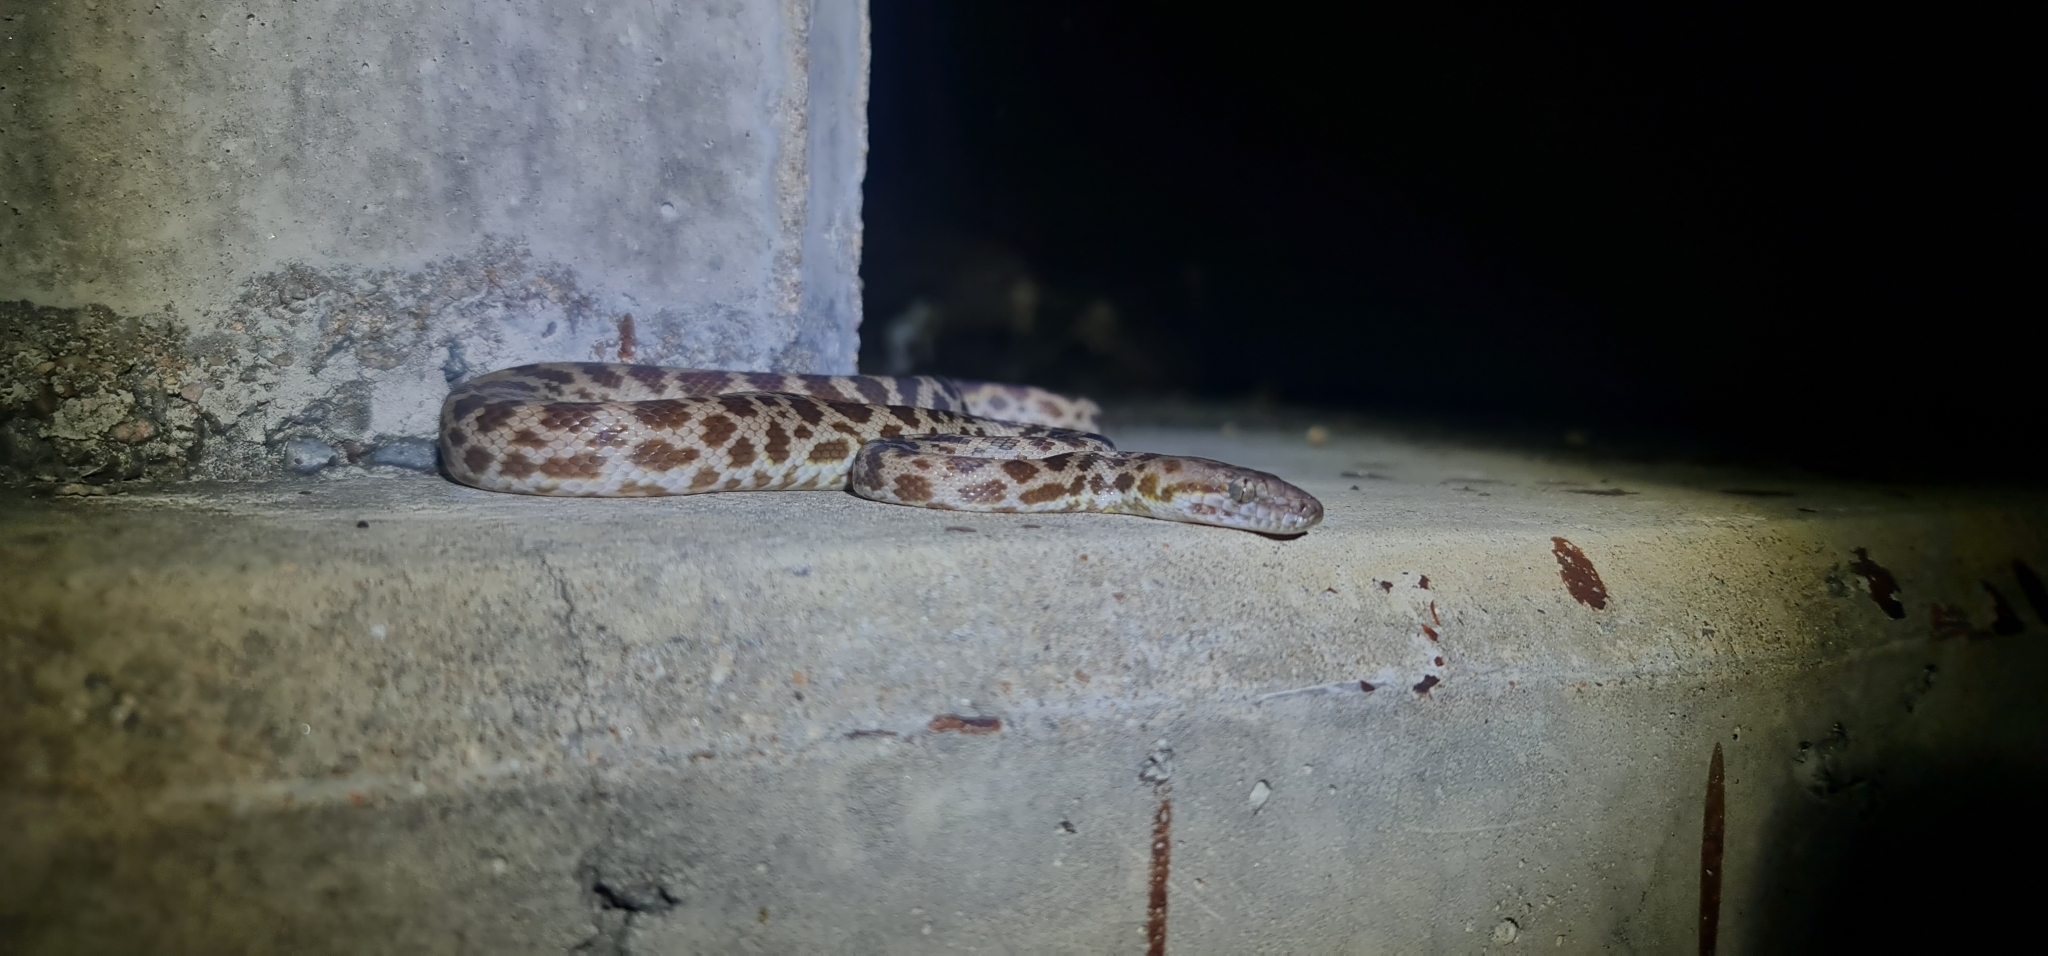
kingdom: Animalia
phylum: Chordata
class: Squamata
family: Pythonidae
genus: Antaresia
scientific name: Antaresia maculosa
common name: Eastern childrens python
